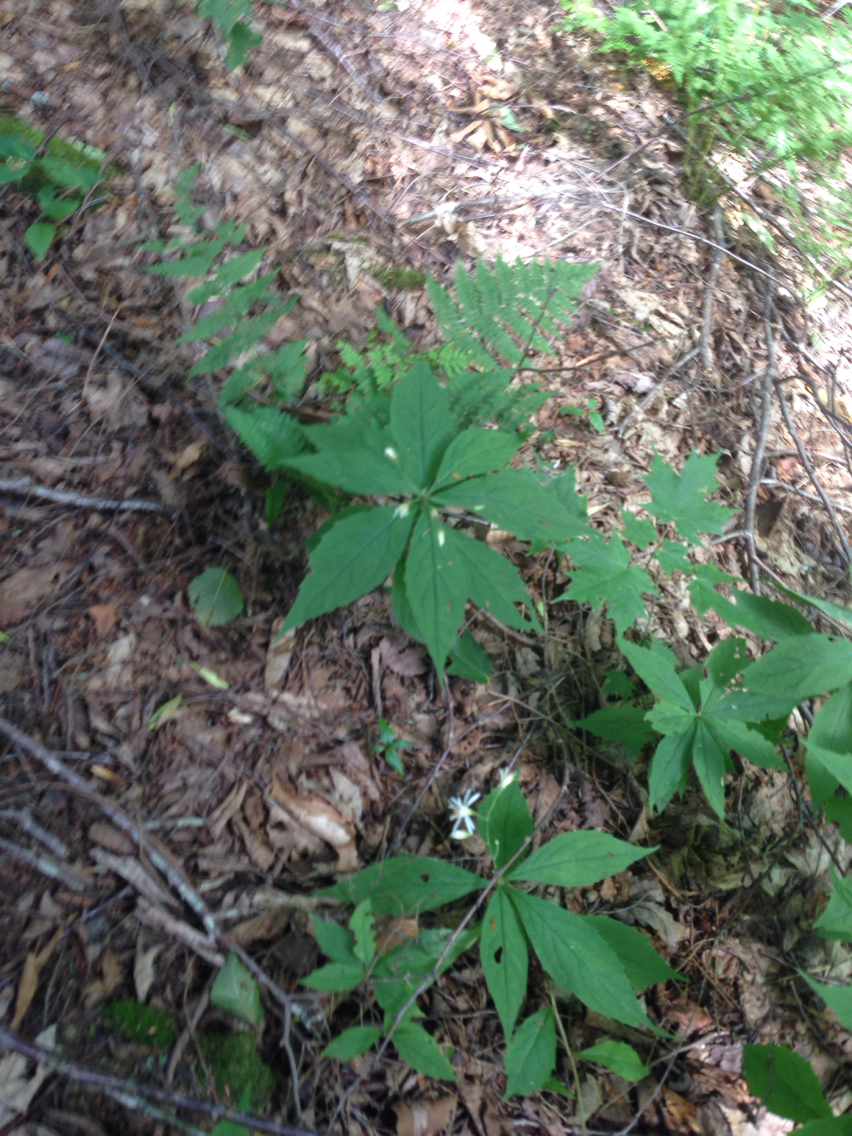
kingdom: Plantae
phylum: Tracheophyta
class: Magnoliopsida
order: Asterales
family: Asteraceae
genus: Oclemena
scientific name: Oclemena acuminata
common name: Mountain aster
